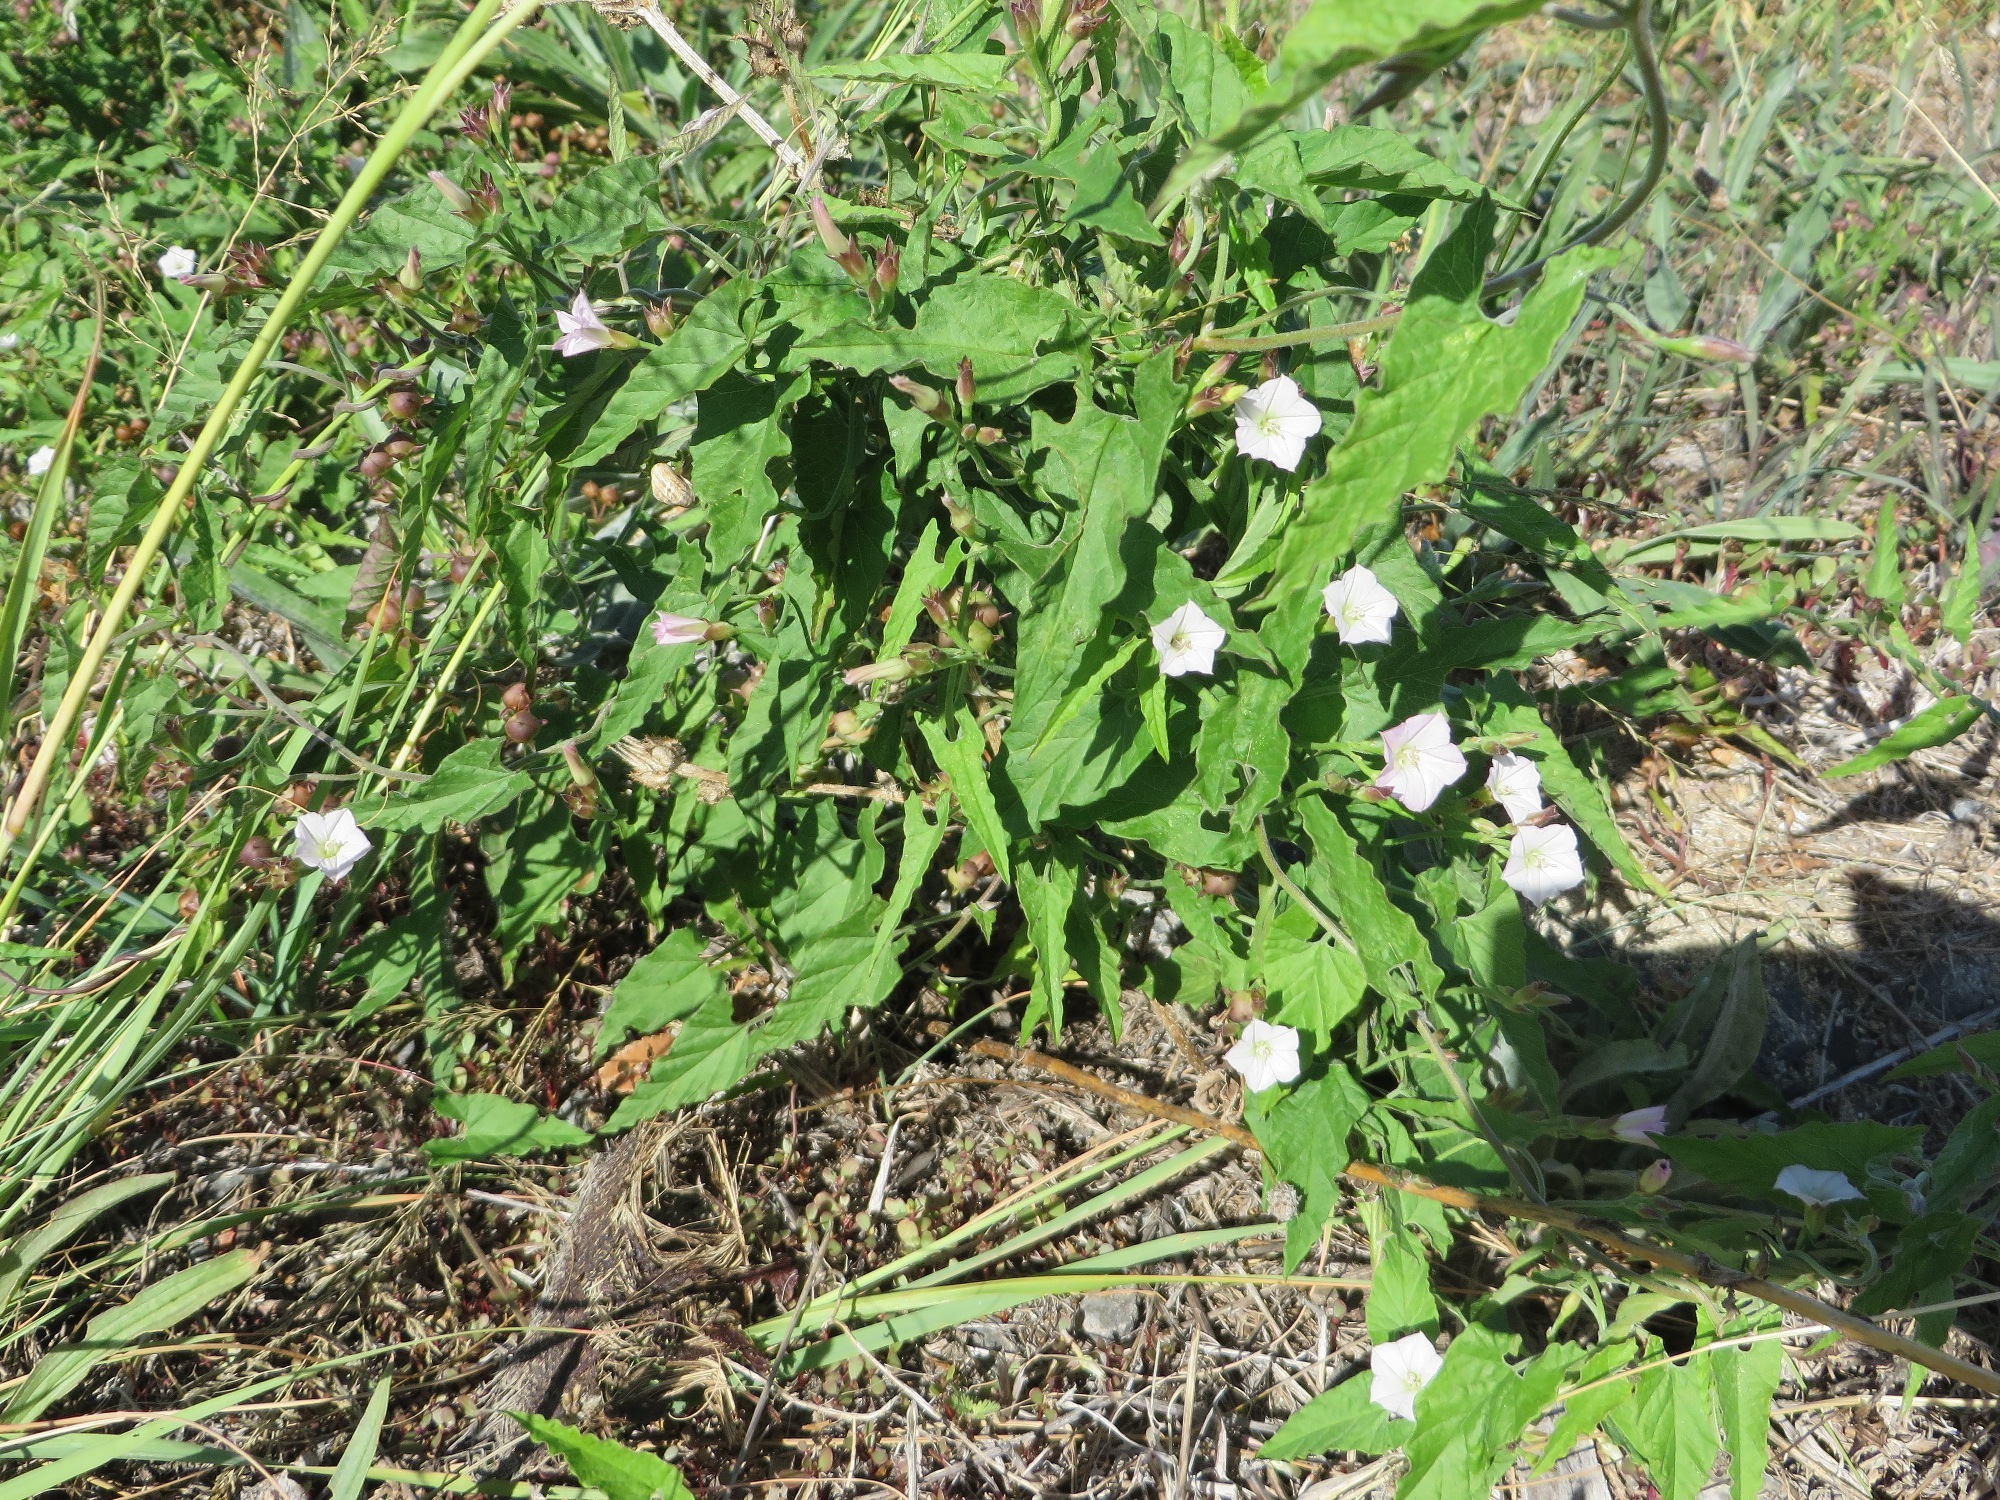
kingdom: Plantae
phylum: Tracheophyta
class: Magnoliopsida
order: Solanales
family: Convolvulaceae
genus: Convolvulus
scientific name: Convolvulus farinosus
